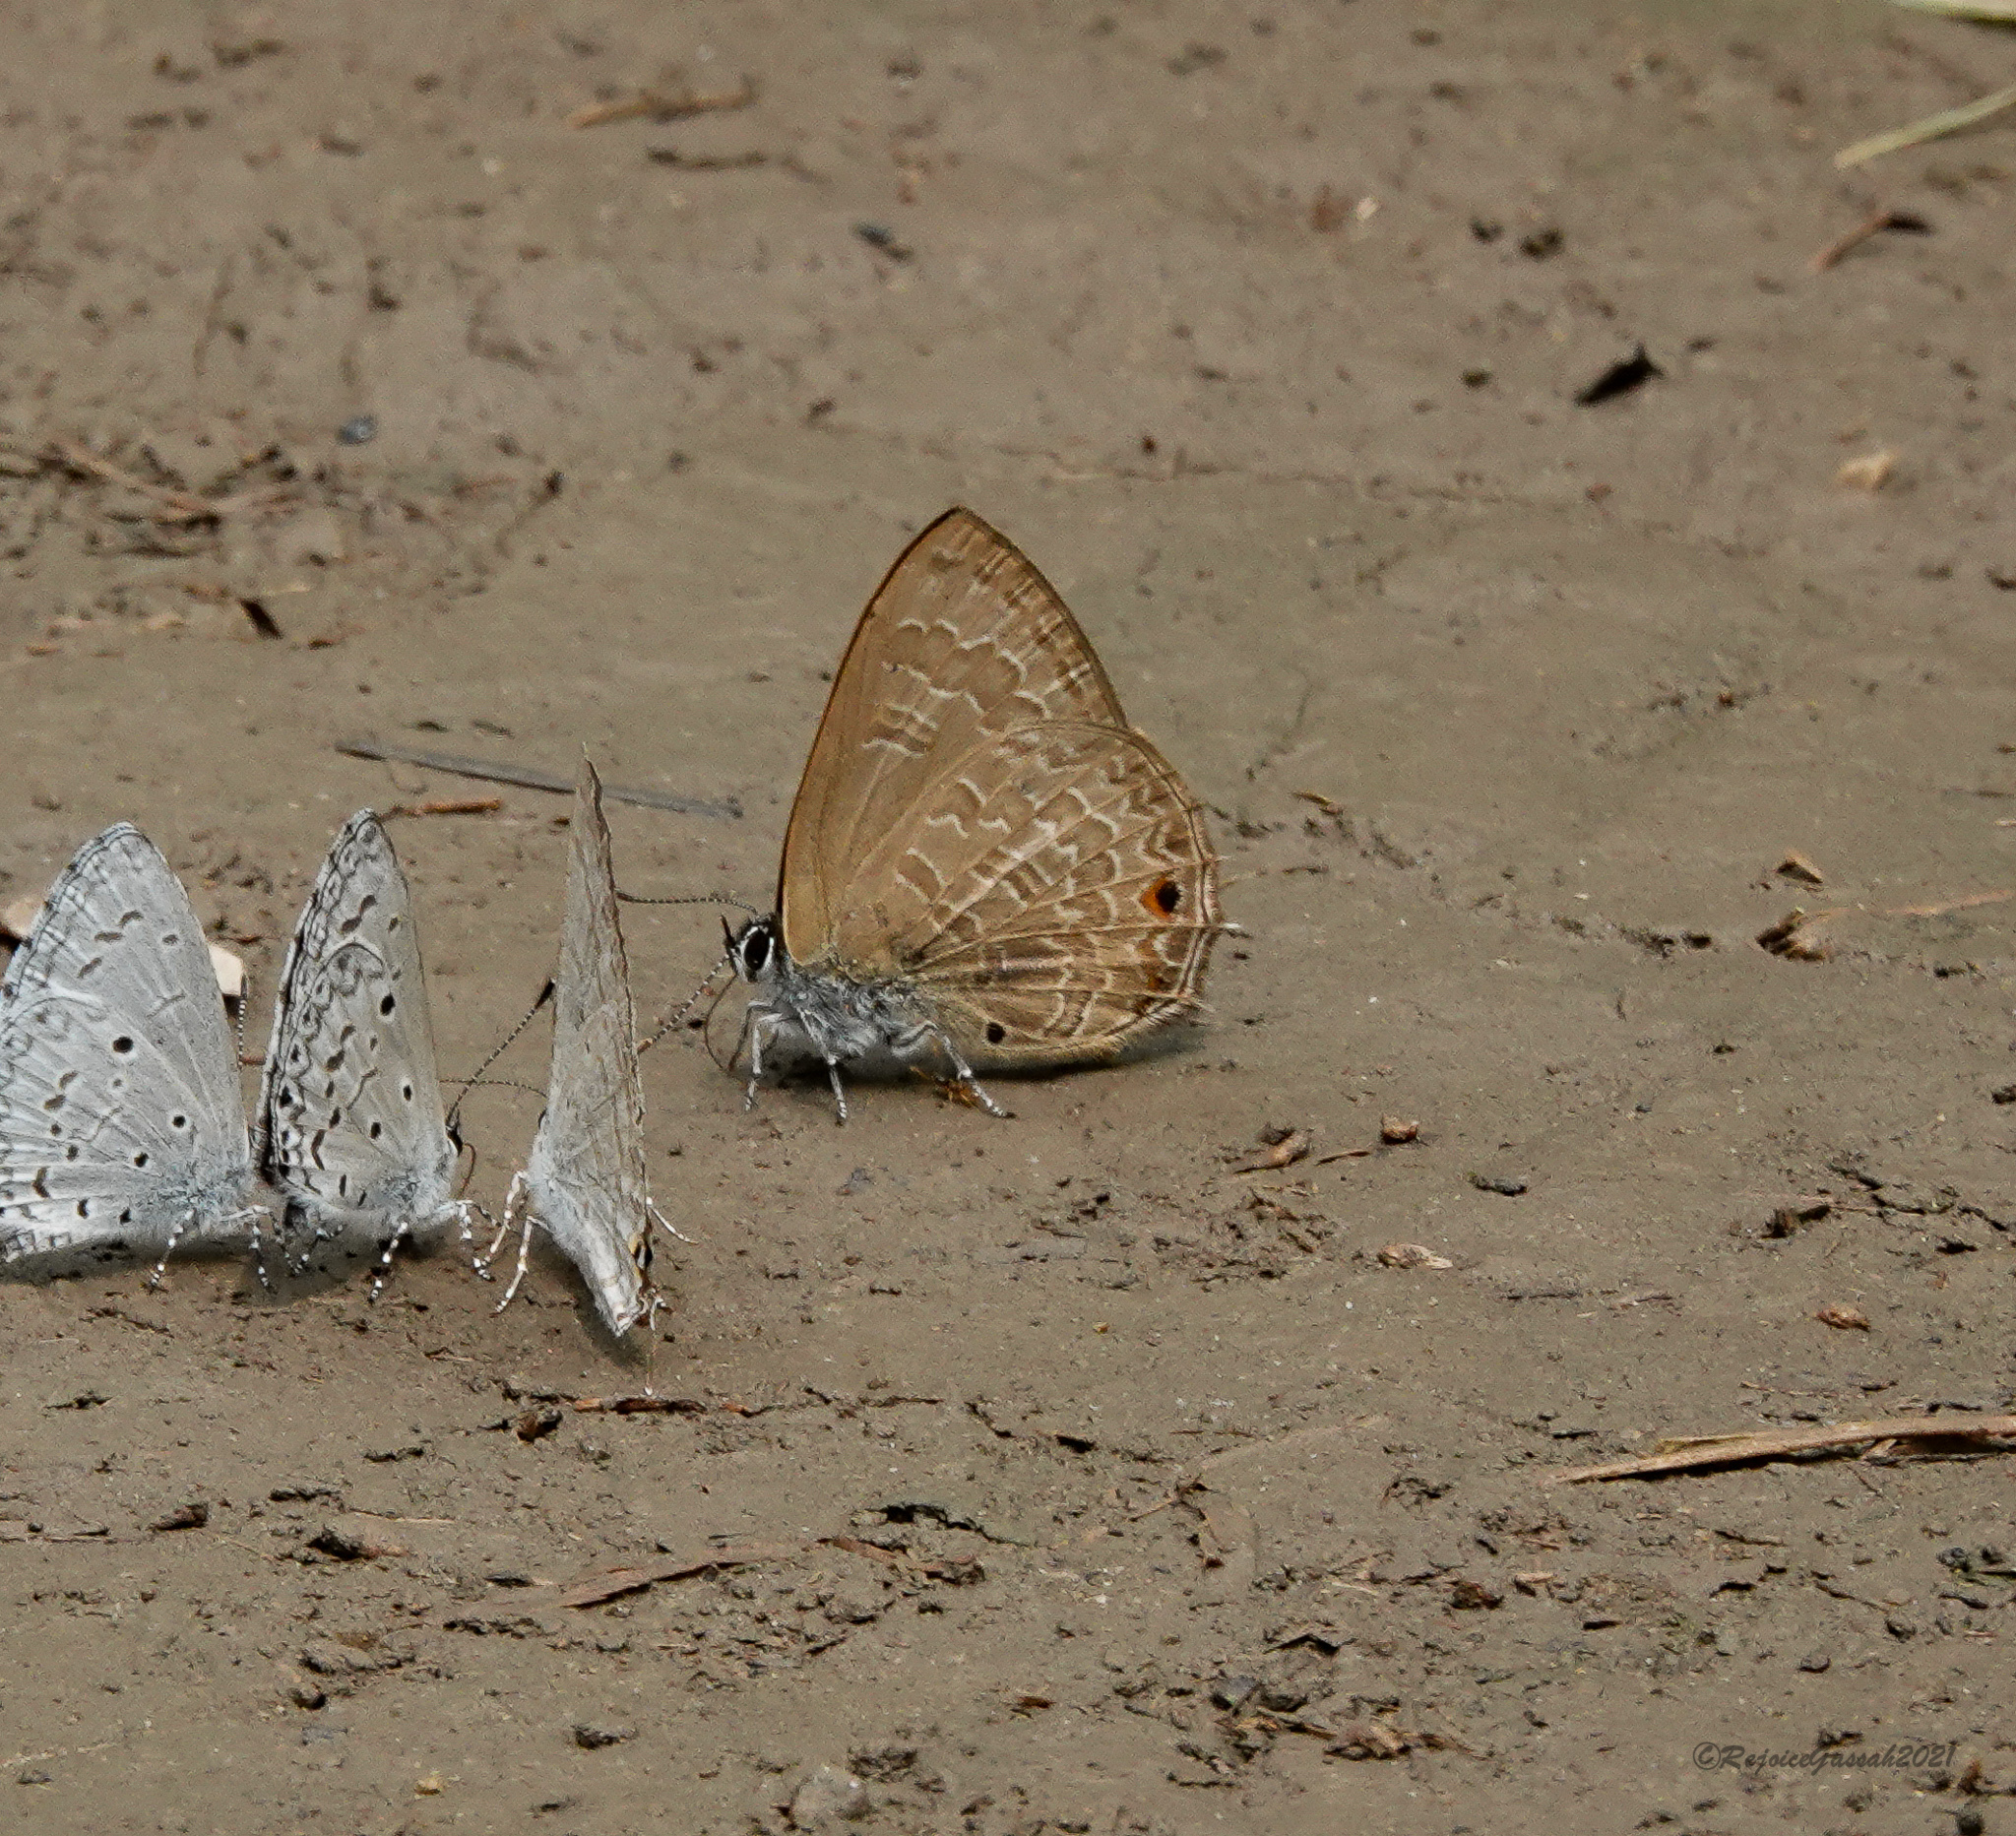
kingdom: Animalia
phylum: Arthropoda
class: Insecta
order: Lepidoptera
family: Lycaenidae
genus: Anthene
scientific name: Anthene emolus
